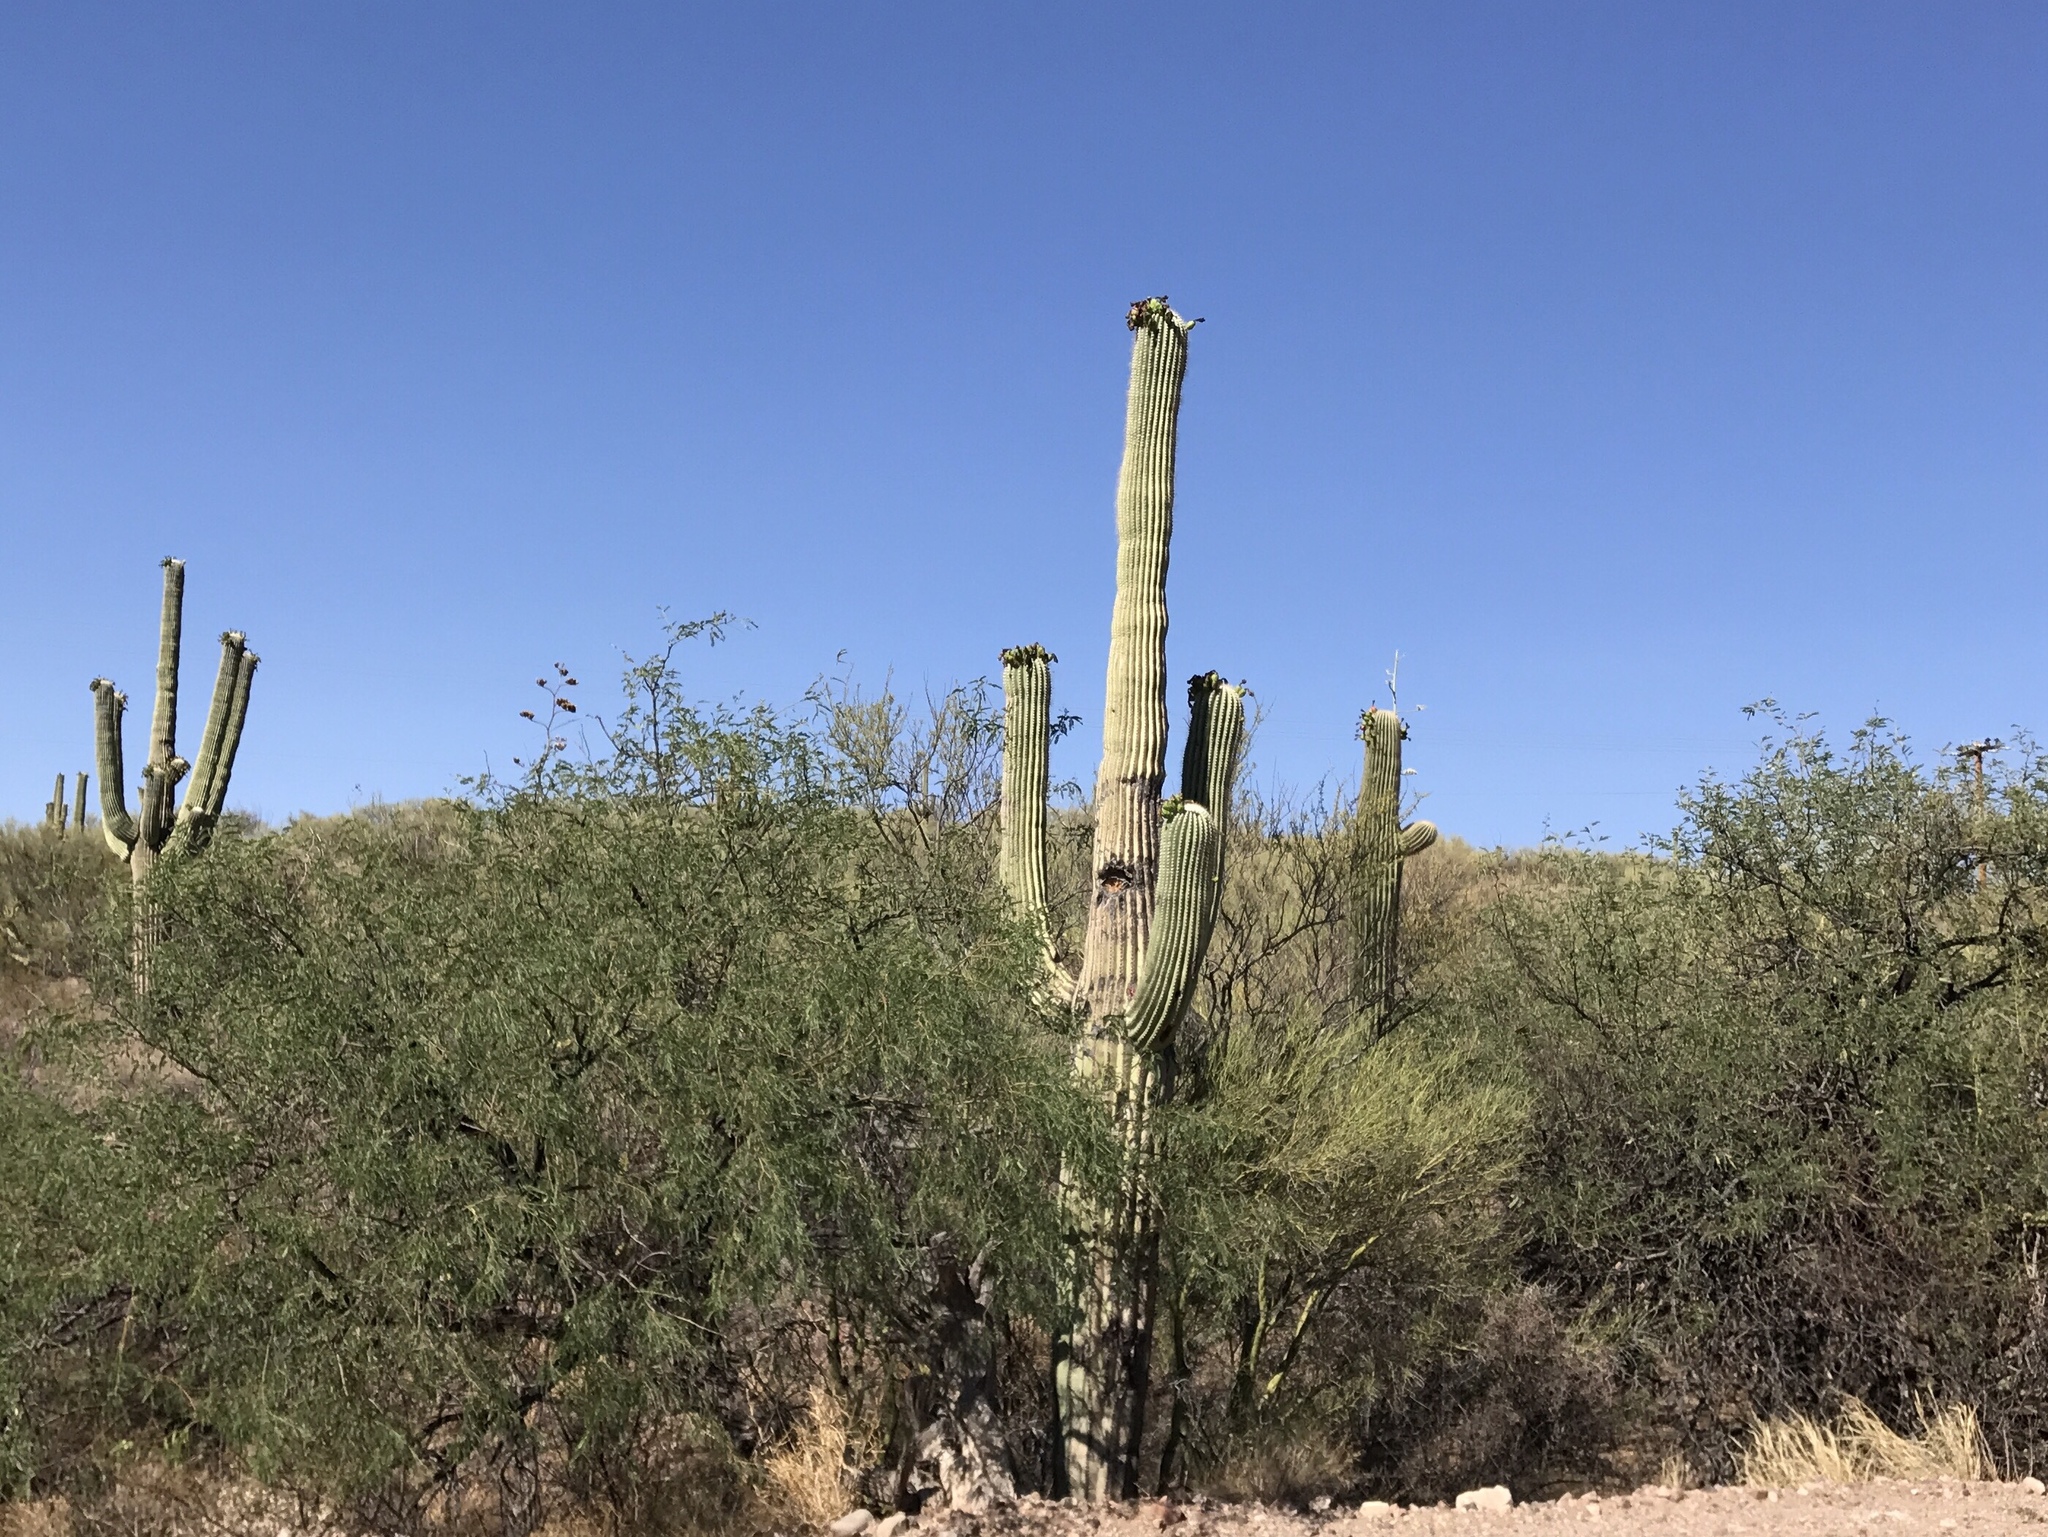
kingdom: Plantae
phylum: Tracheophyta
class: Magnoliopsida
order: Caryophyllales
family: Cactaceae
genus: Carnegiea
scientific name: Carnegiea gigantea
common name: Saguaro
